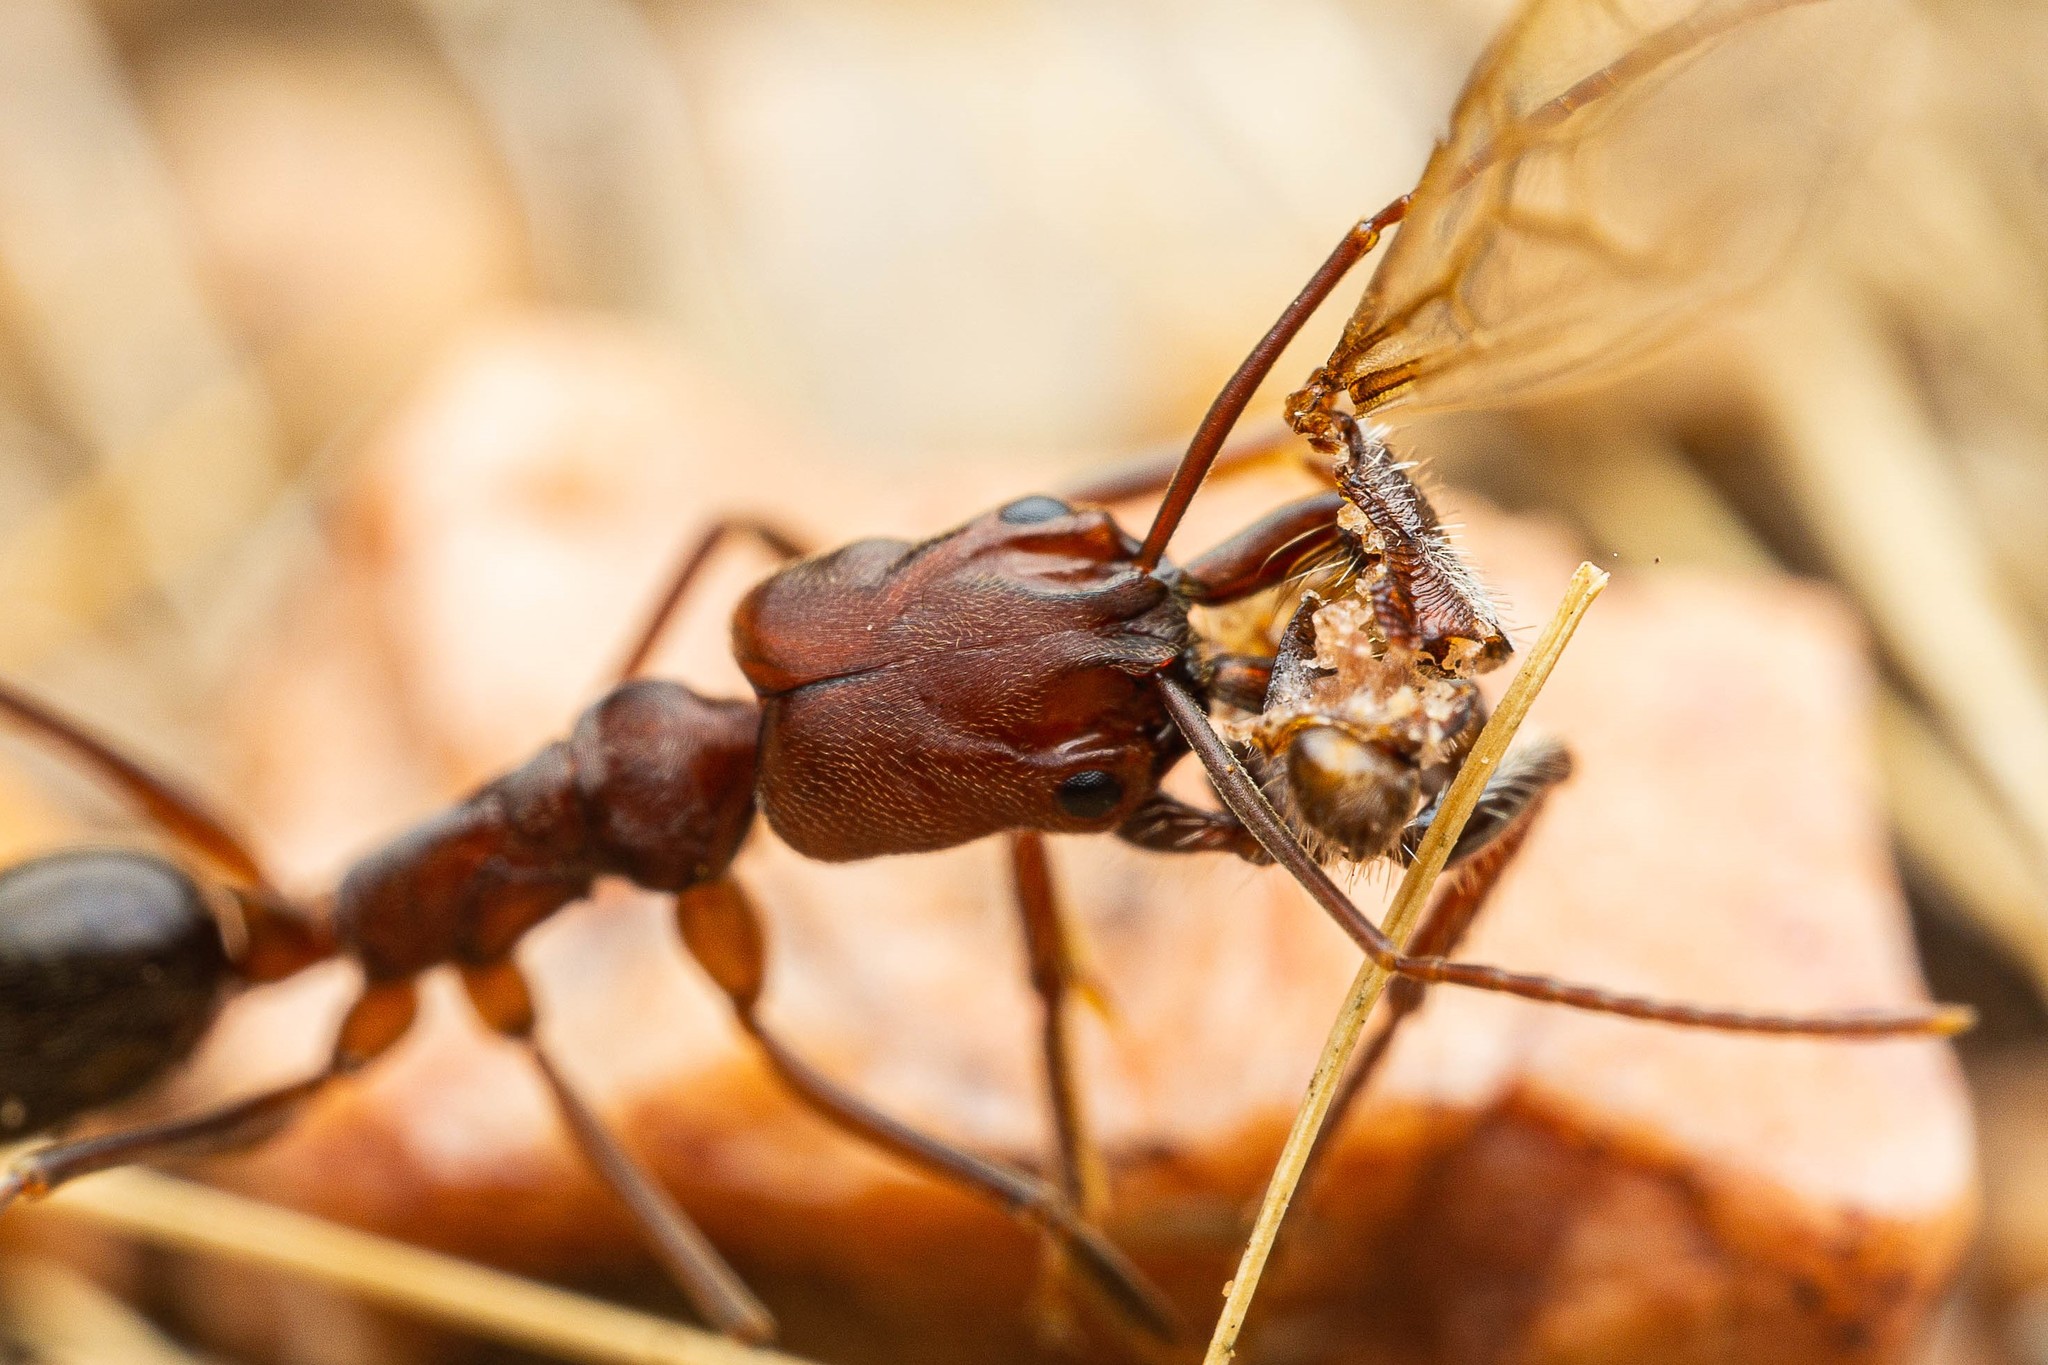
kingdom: Animalia
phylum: Arthropoda
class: Insecta
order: Hymenoptera
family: Formicidae
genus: Odontomachus
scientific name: Odontomachus
